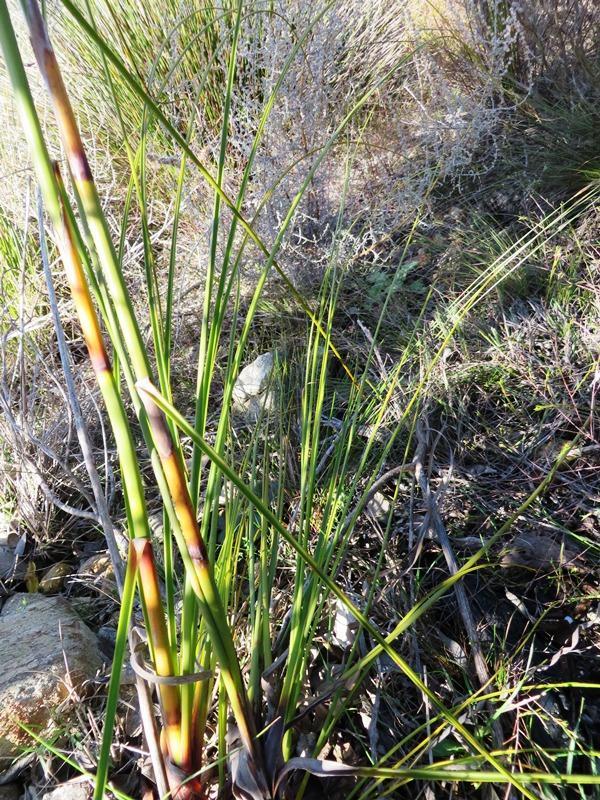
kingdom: Plantae
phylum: Tracheophyta
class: Liliopsida
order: Poales
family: Cyperaceae
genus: Tetraria
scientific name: Tetraria bromoides
